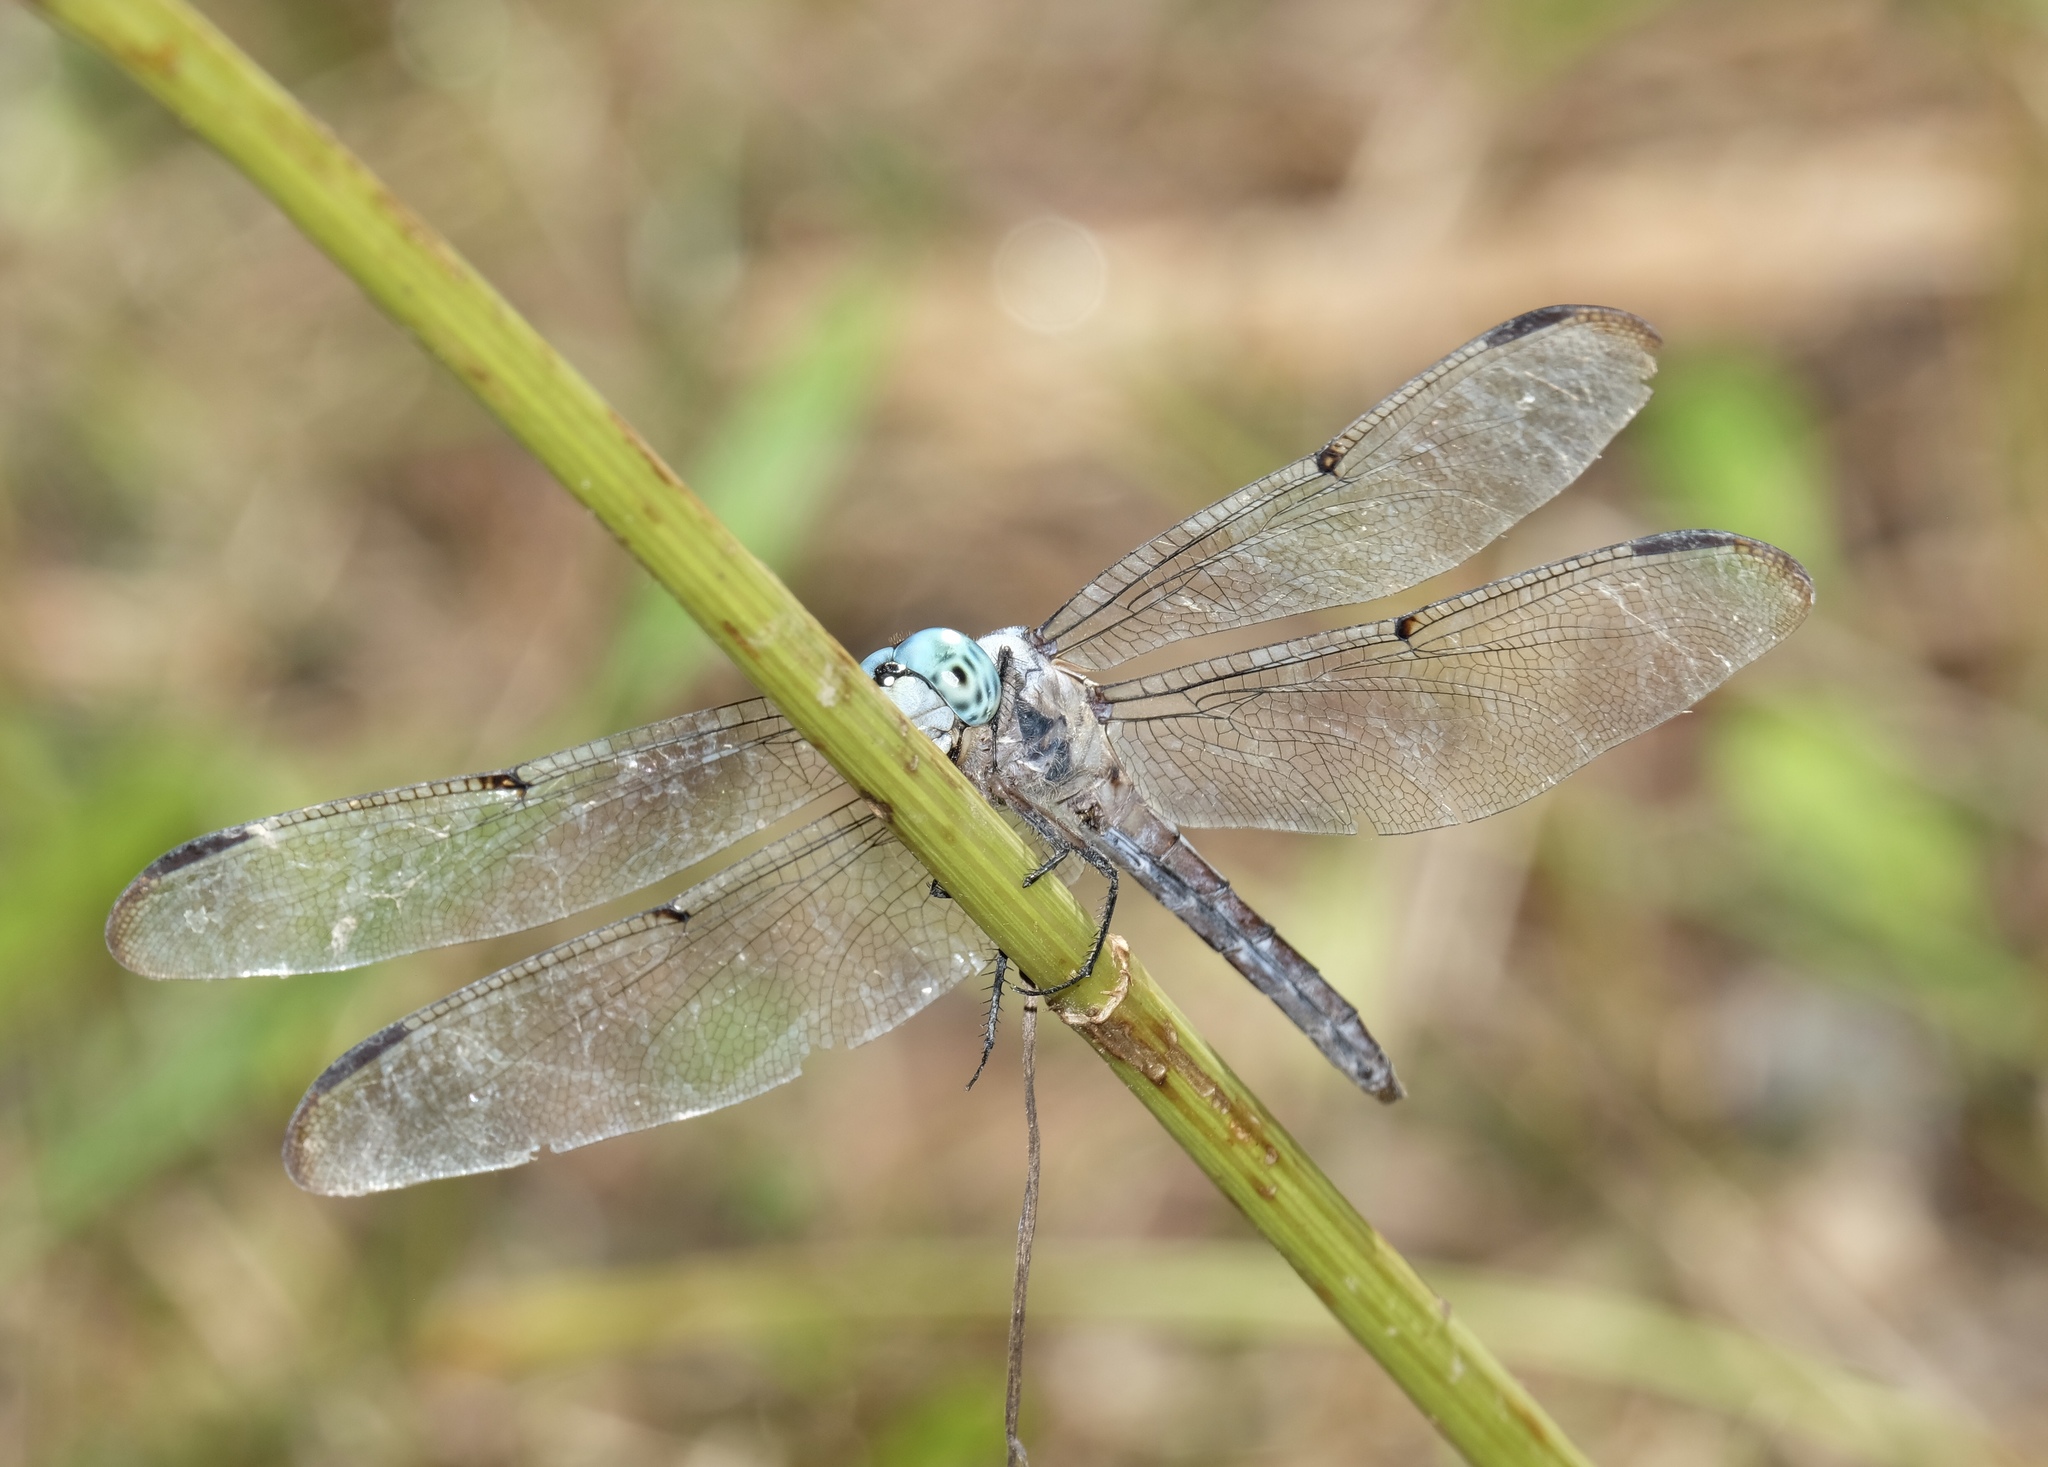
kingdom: Animalia
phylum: Arthropoda
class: Insecta
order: Odonata
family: Libellulidae
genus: Libellula
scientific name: Libellula vibrans
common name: Great blue skimmer
